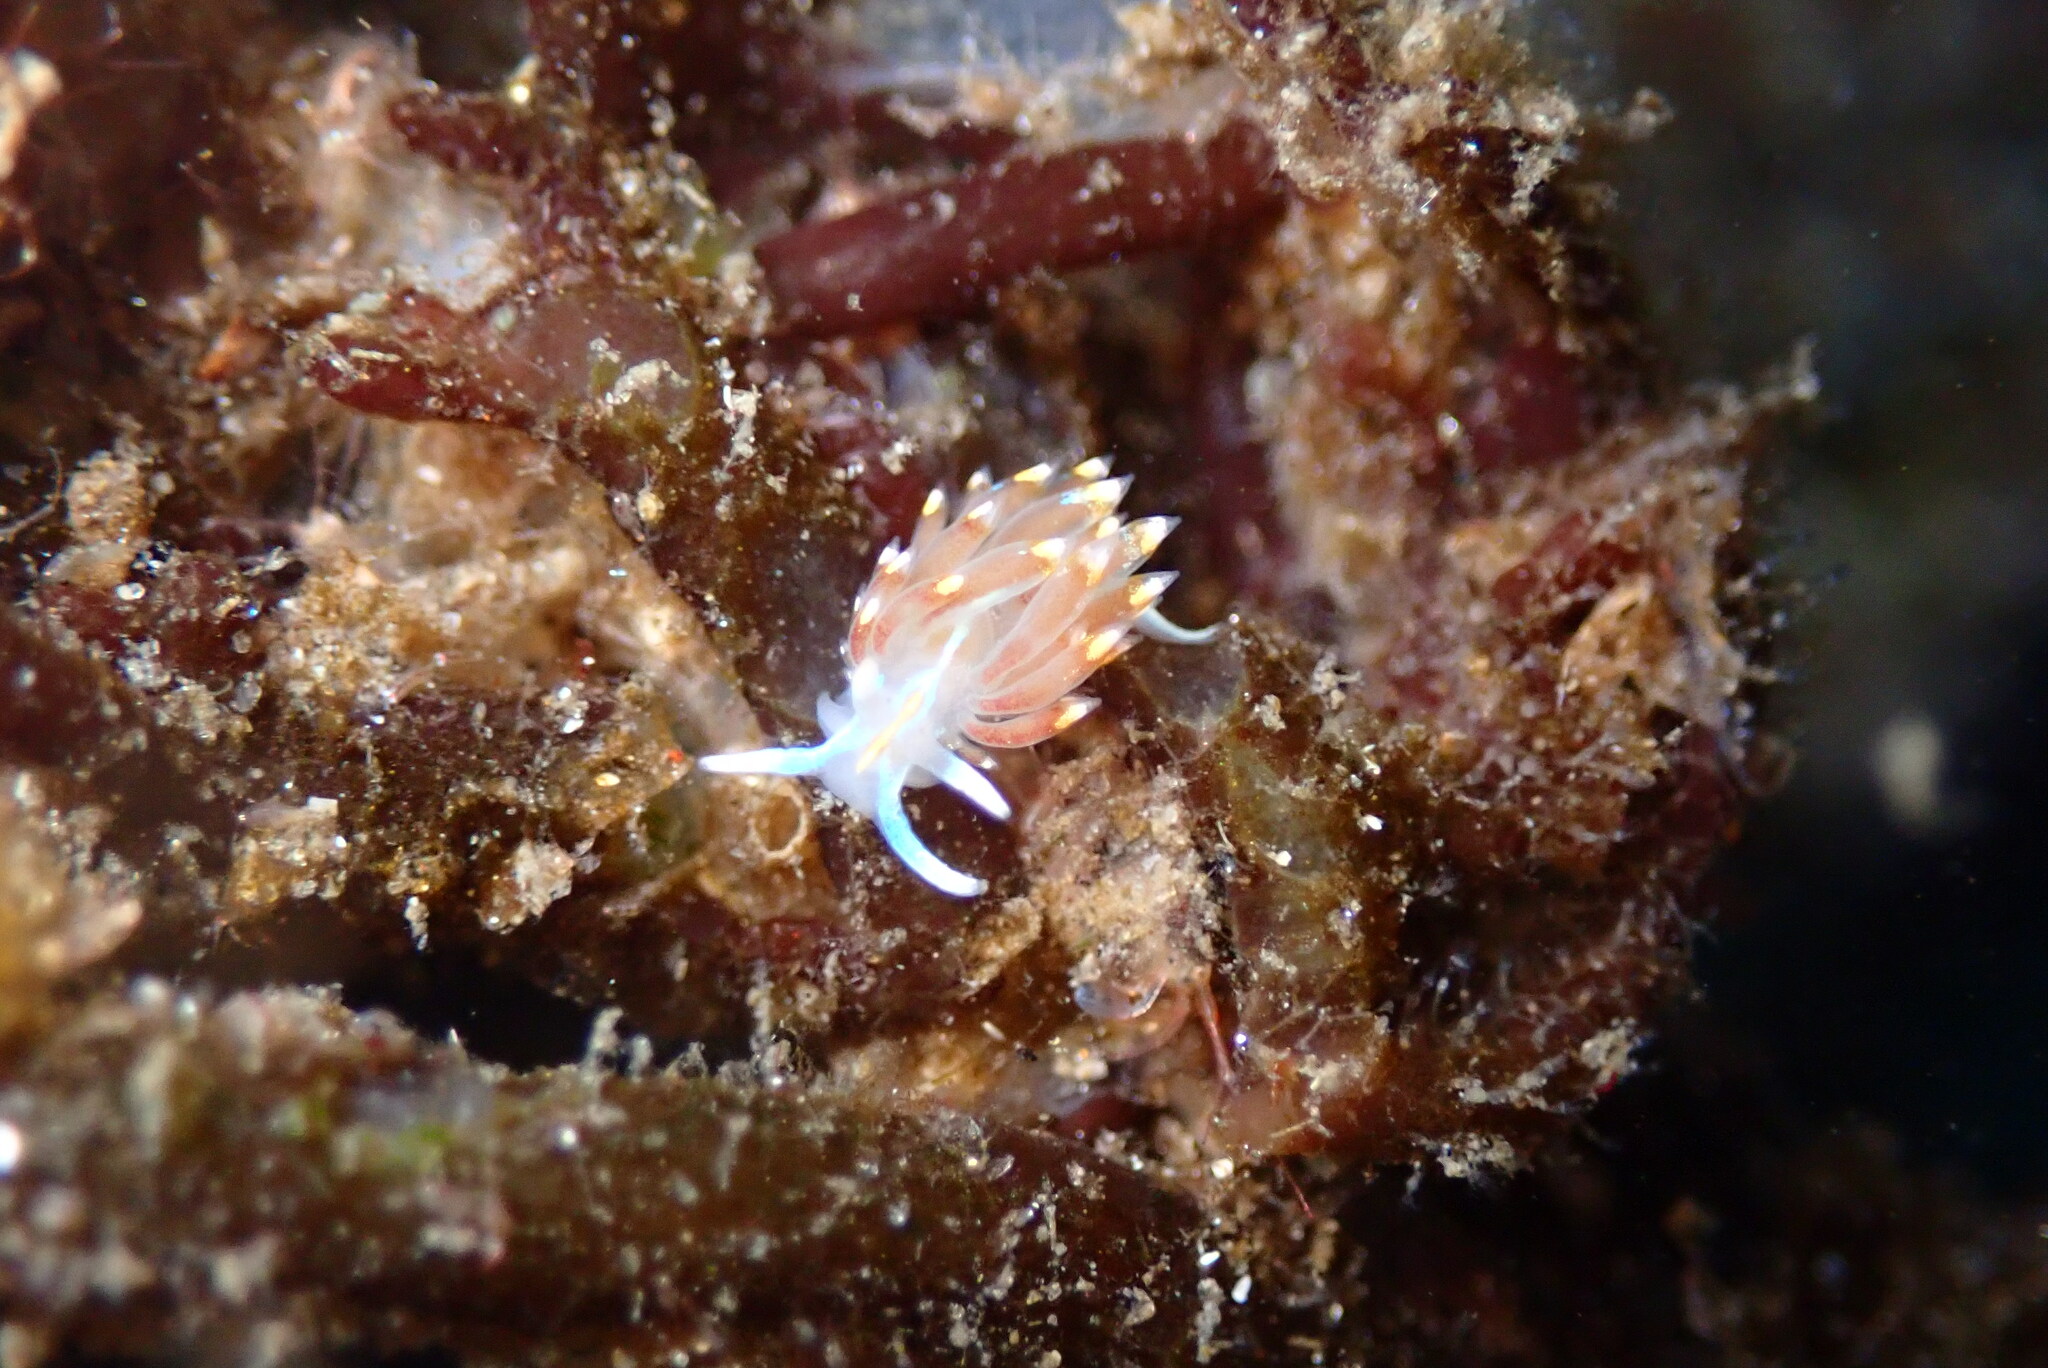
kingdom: Animalia
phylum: Mollusca
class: Gastropoda
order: Nudibranchia
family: Myrrhinidae
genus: Hermissenda
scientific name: Hermissenda opalescens
